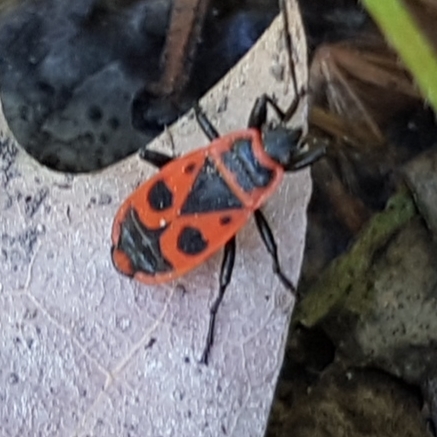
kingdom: Animalia
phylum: Arthropoda
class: Insecta
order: Hemiptera
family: Pyrrhocoridae
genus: Pyrrhocoris
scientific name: Pyrrhocoris apterus
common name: Firebug
